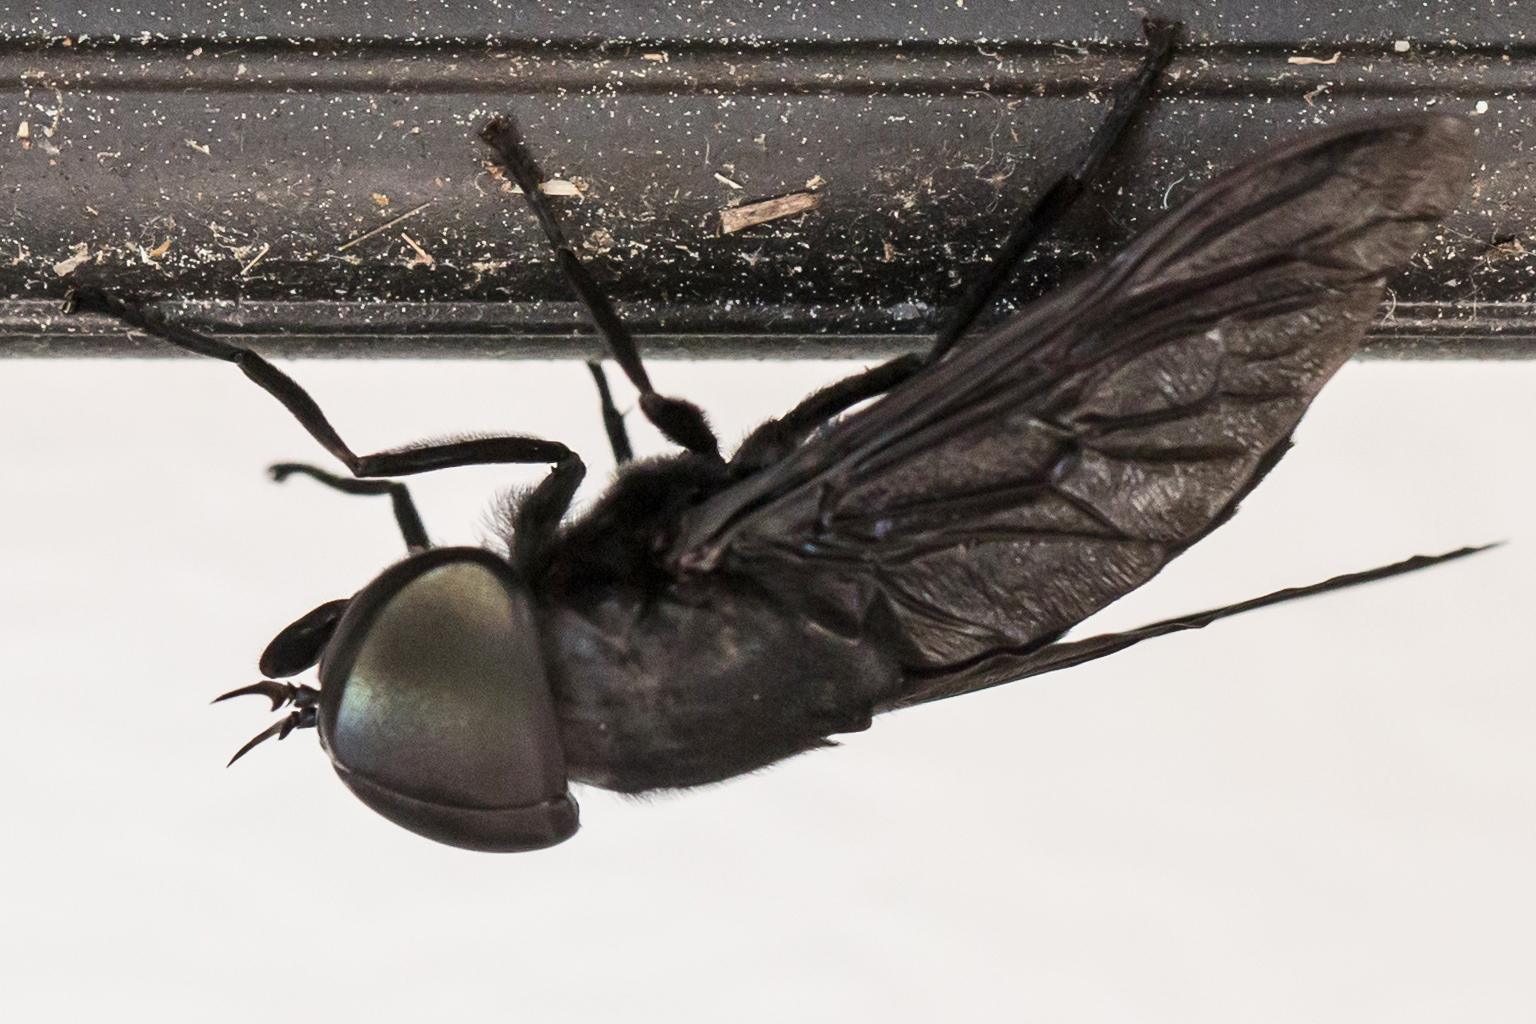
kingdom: Animalia
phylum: Arthropoda
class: Insecta
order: Diptera
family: Tabanidae
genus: Tabanus
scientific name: Tabanus atratus
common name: Black horse fly
